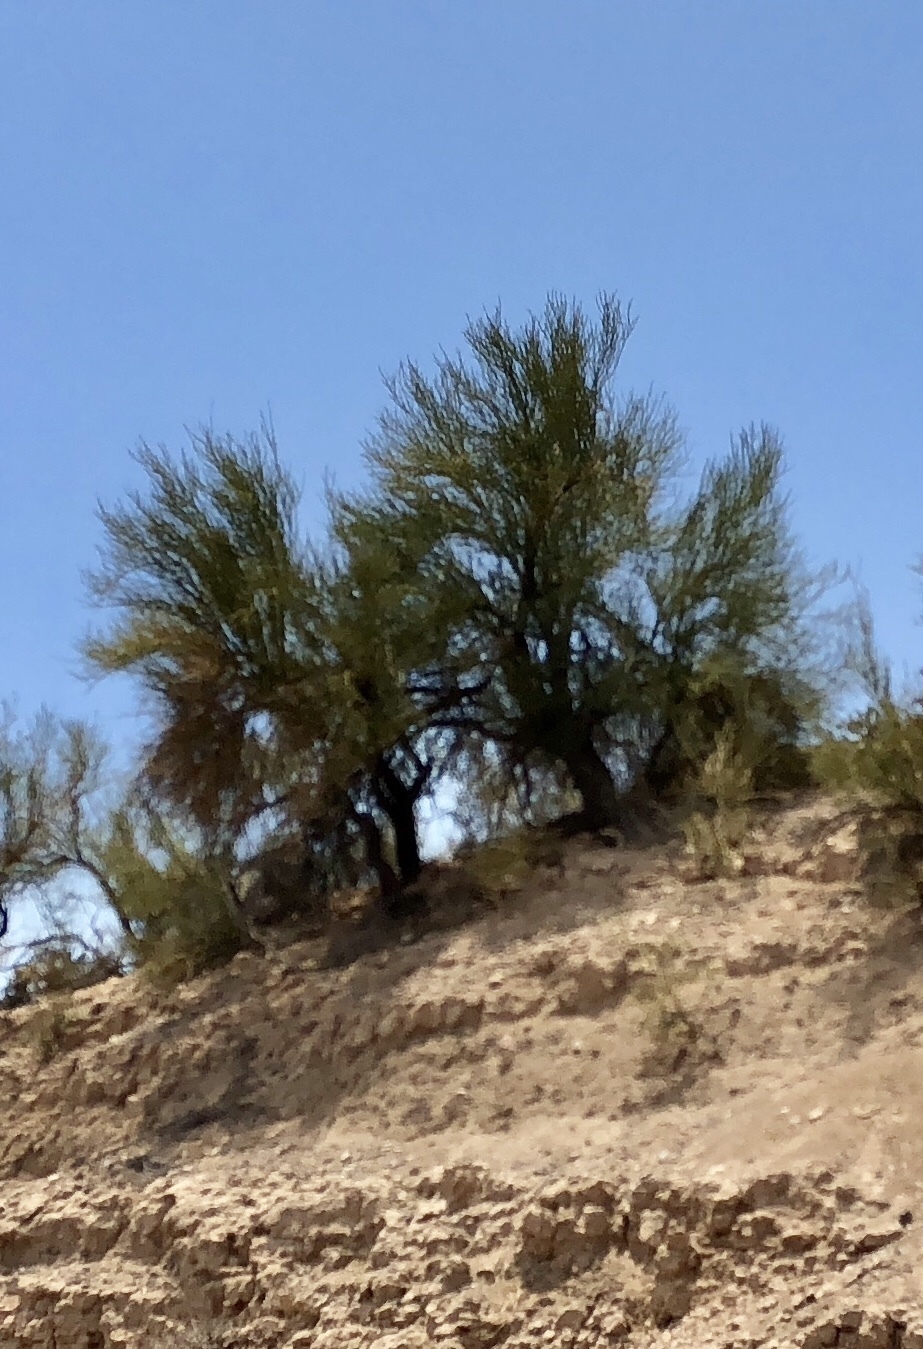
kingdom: Plantae
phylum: Tracheophyta
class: Magnoliopsida
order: Celastrales
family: Celastraceae
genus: Canotia
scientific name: Canotia holacantha
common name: Crucifixion thorns
